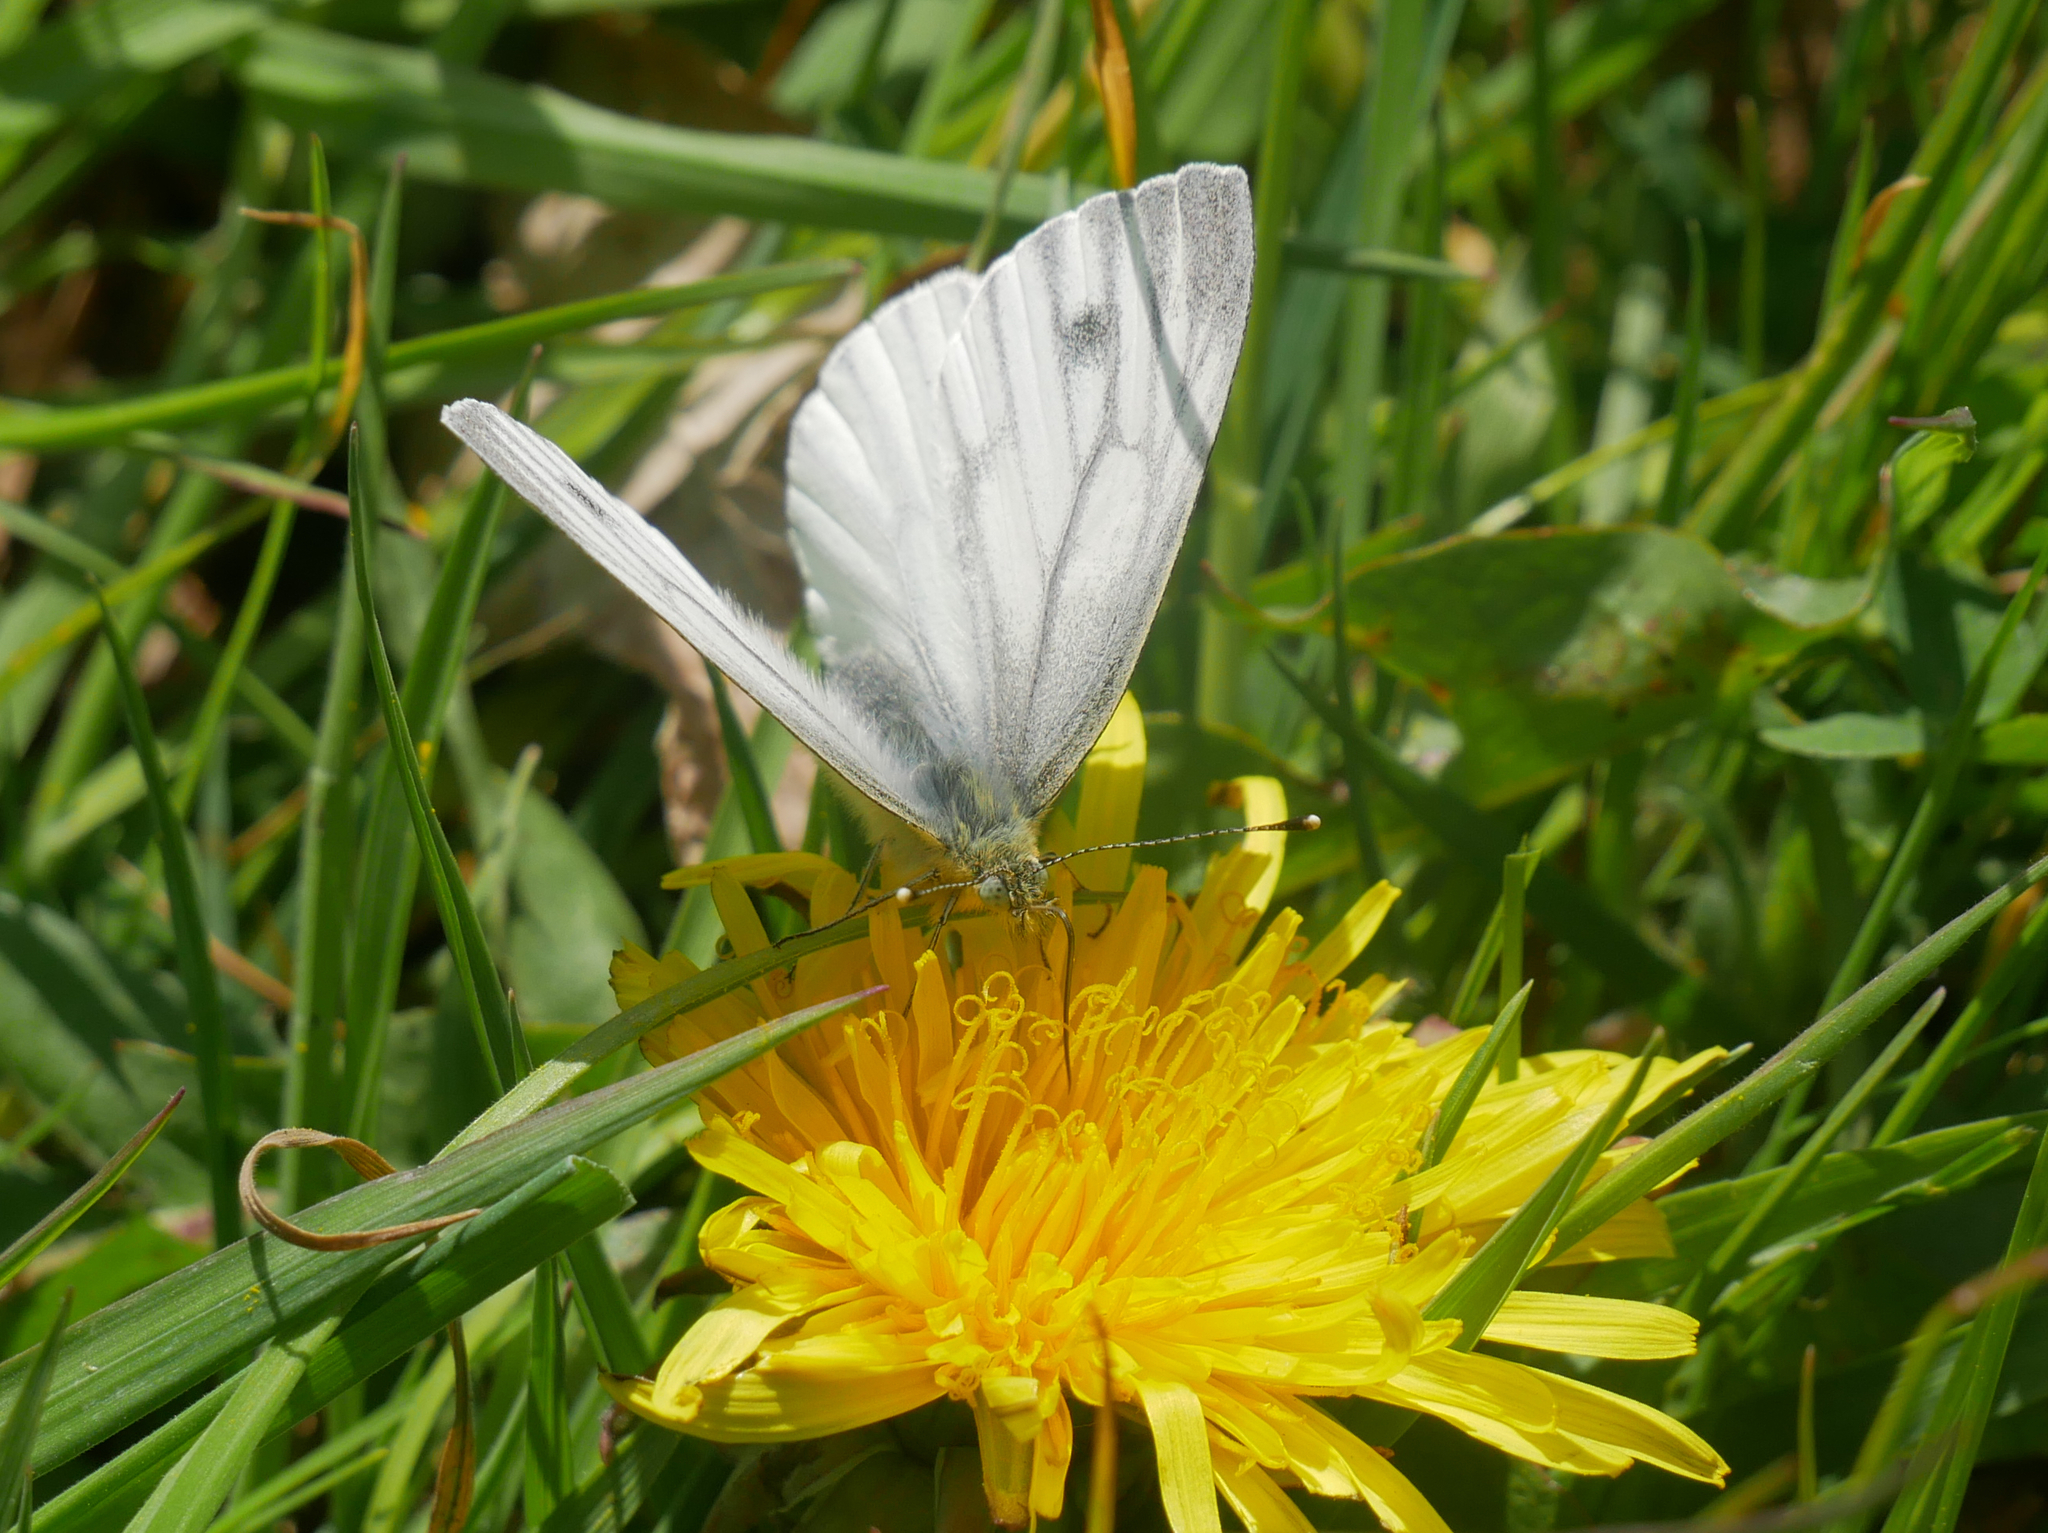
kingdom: Animalia
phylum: Arthropoda
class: Insecta
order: Lepidoptera
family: Pieridae
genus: Pieris
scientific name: Pieris napi
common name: Green-veined white
